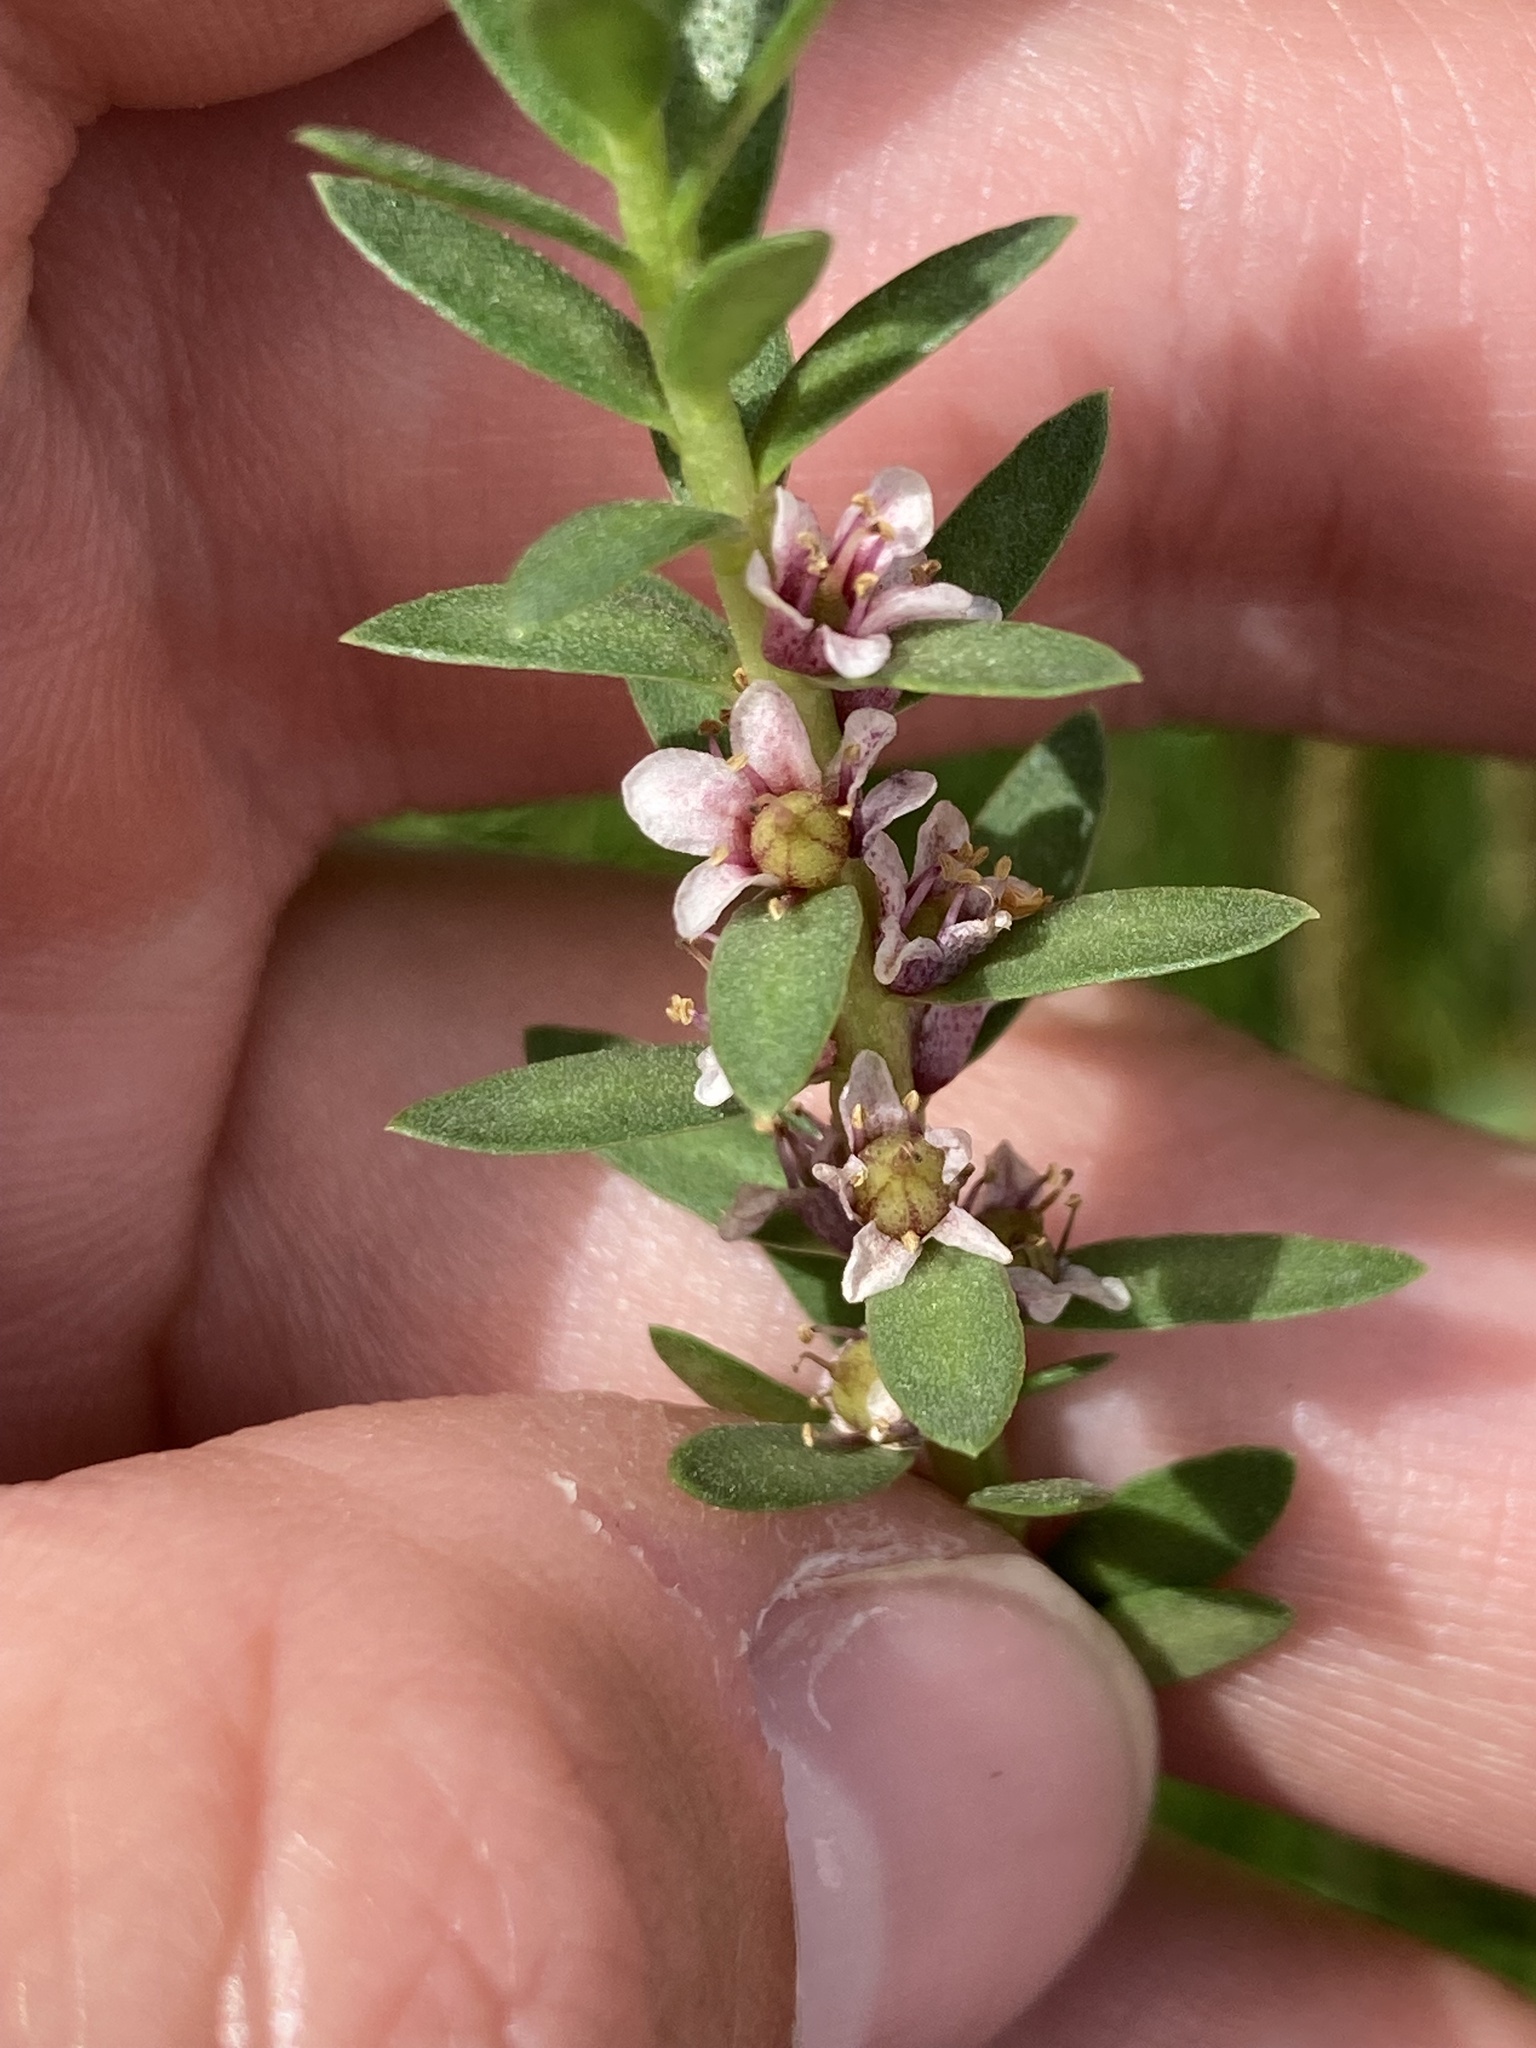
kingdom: Plantae
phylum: Tracheophyta
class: Magnoliopsida
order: Ericales
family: Primulaceae
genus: Lysimachia
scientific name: Lysimachia maritima
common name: Sea milkwort
